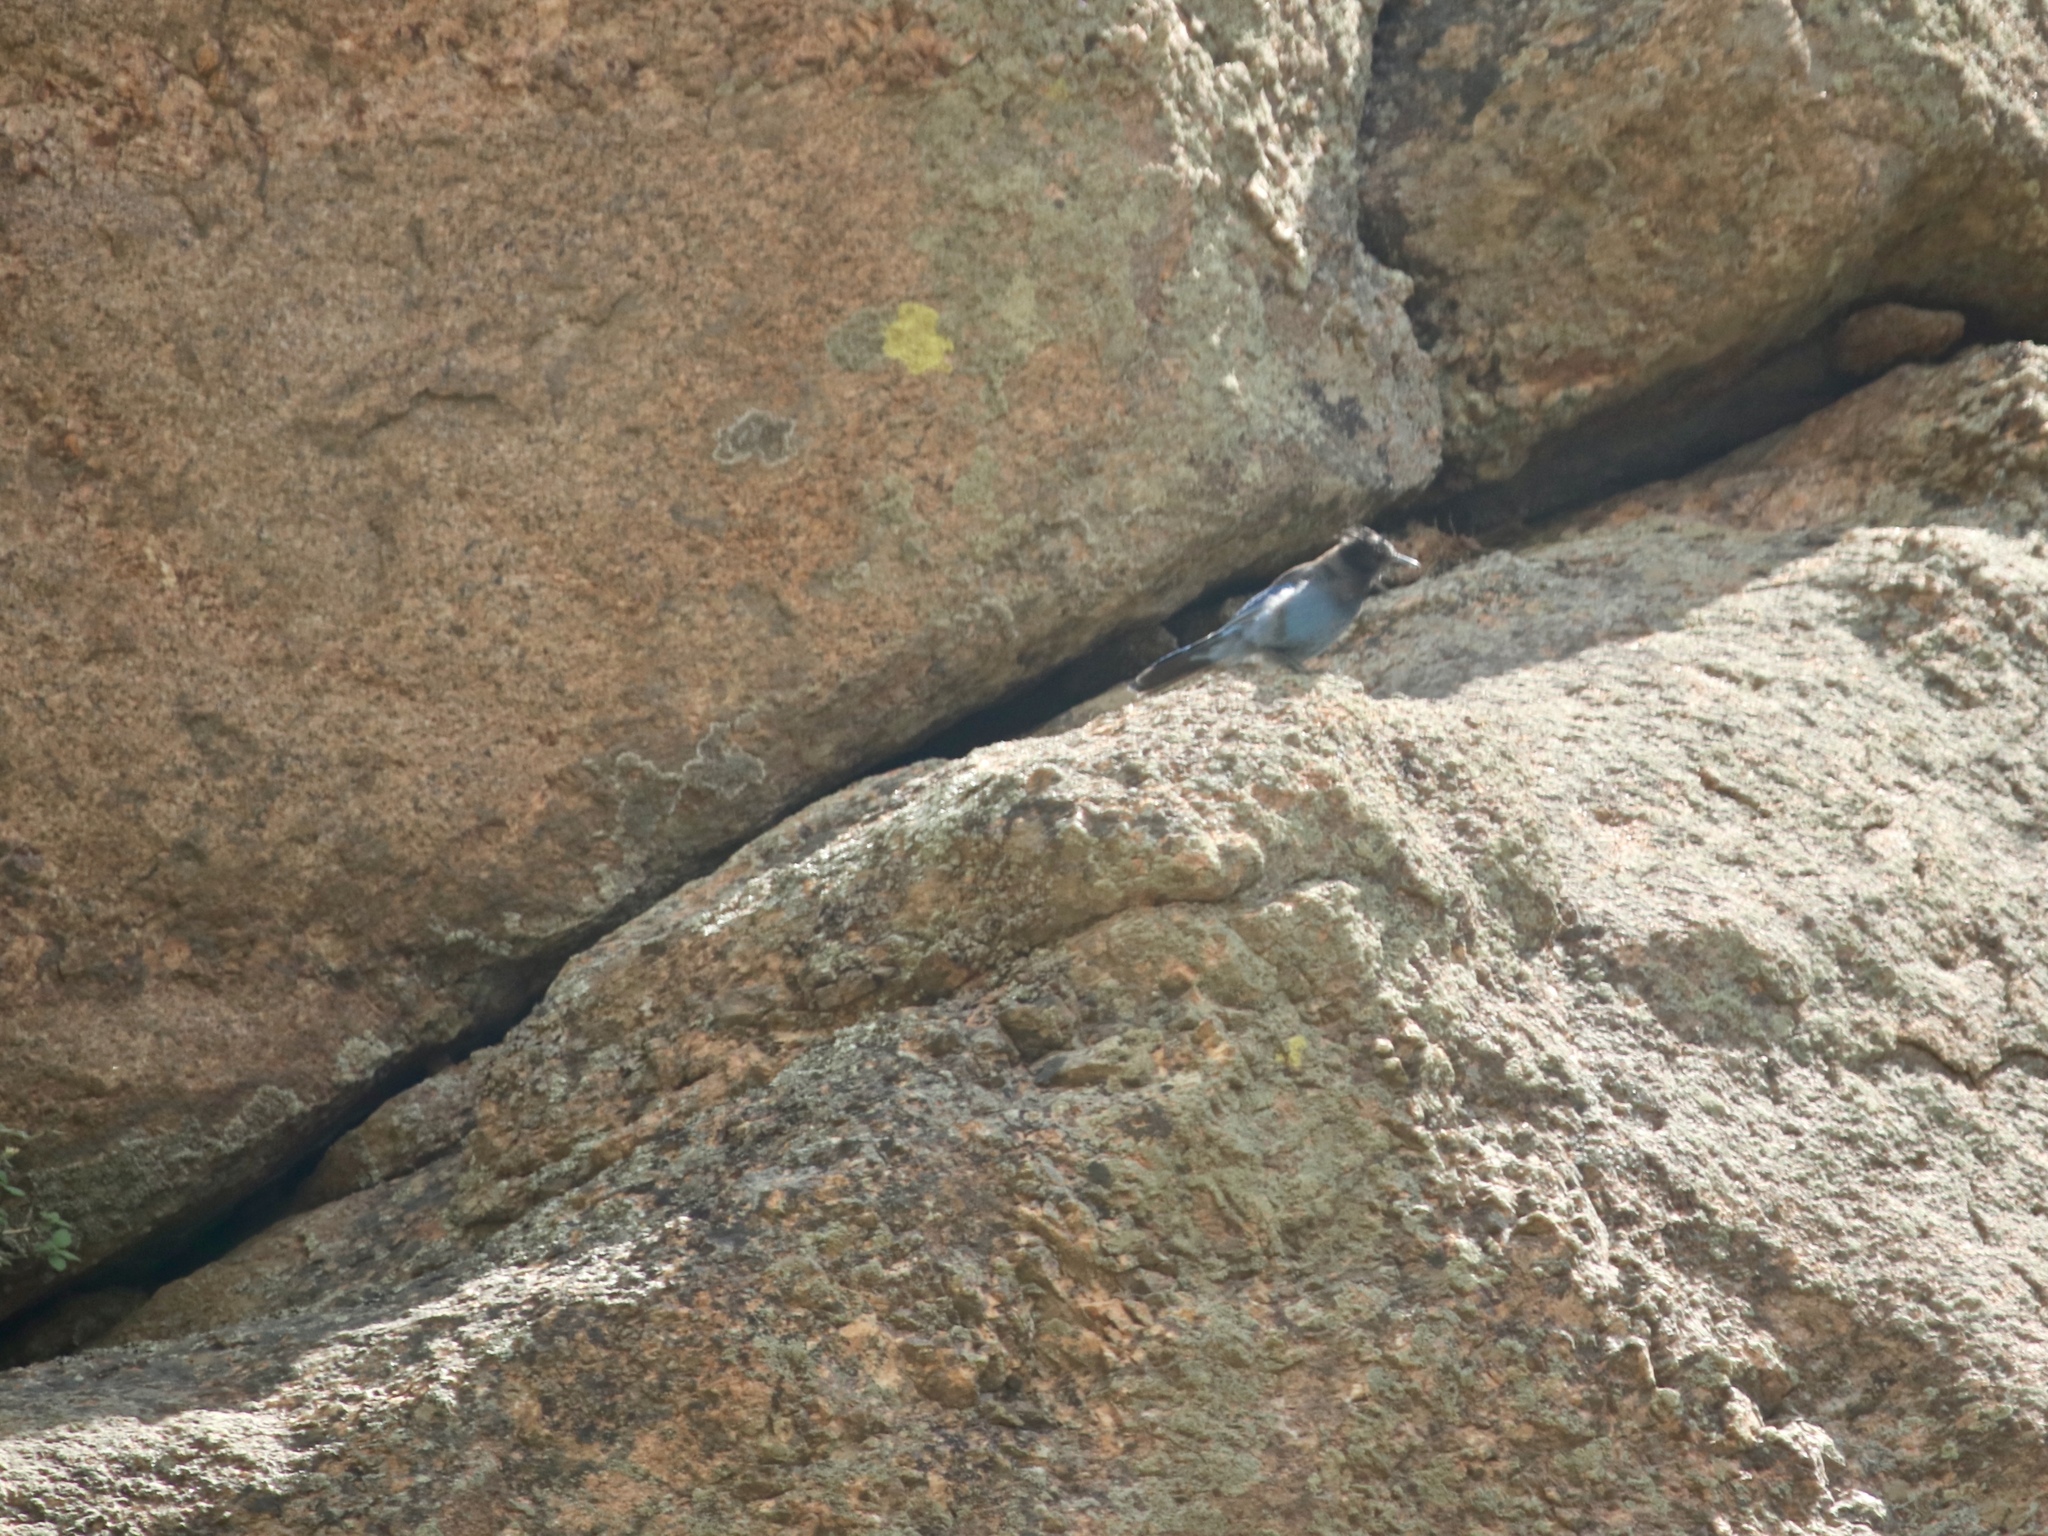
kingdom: Animalia
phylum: Chordata
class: Aves
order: Passeriformes
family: Corvidae
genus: Cyanocitta
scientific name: Cyanocitta stelleri
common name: Steller's jay
